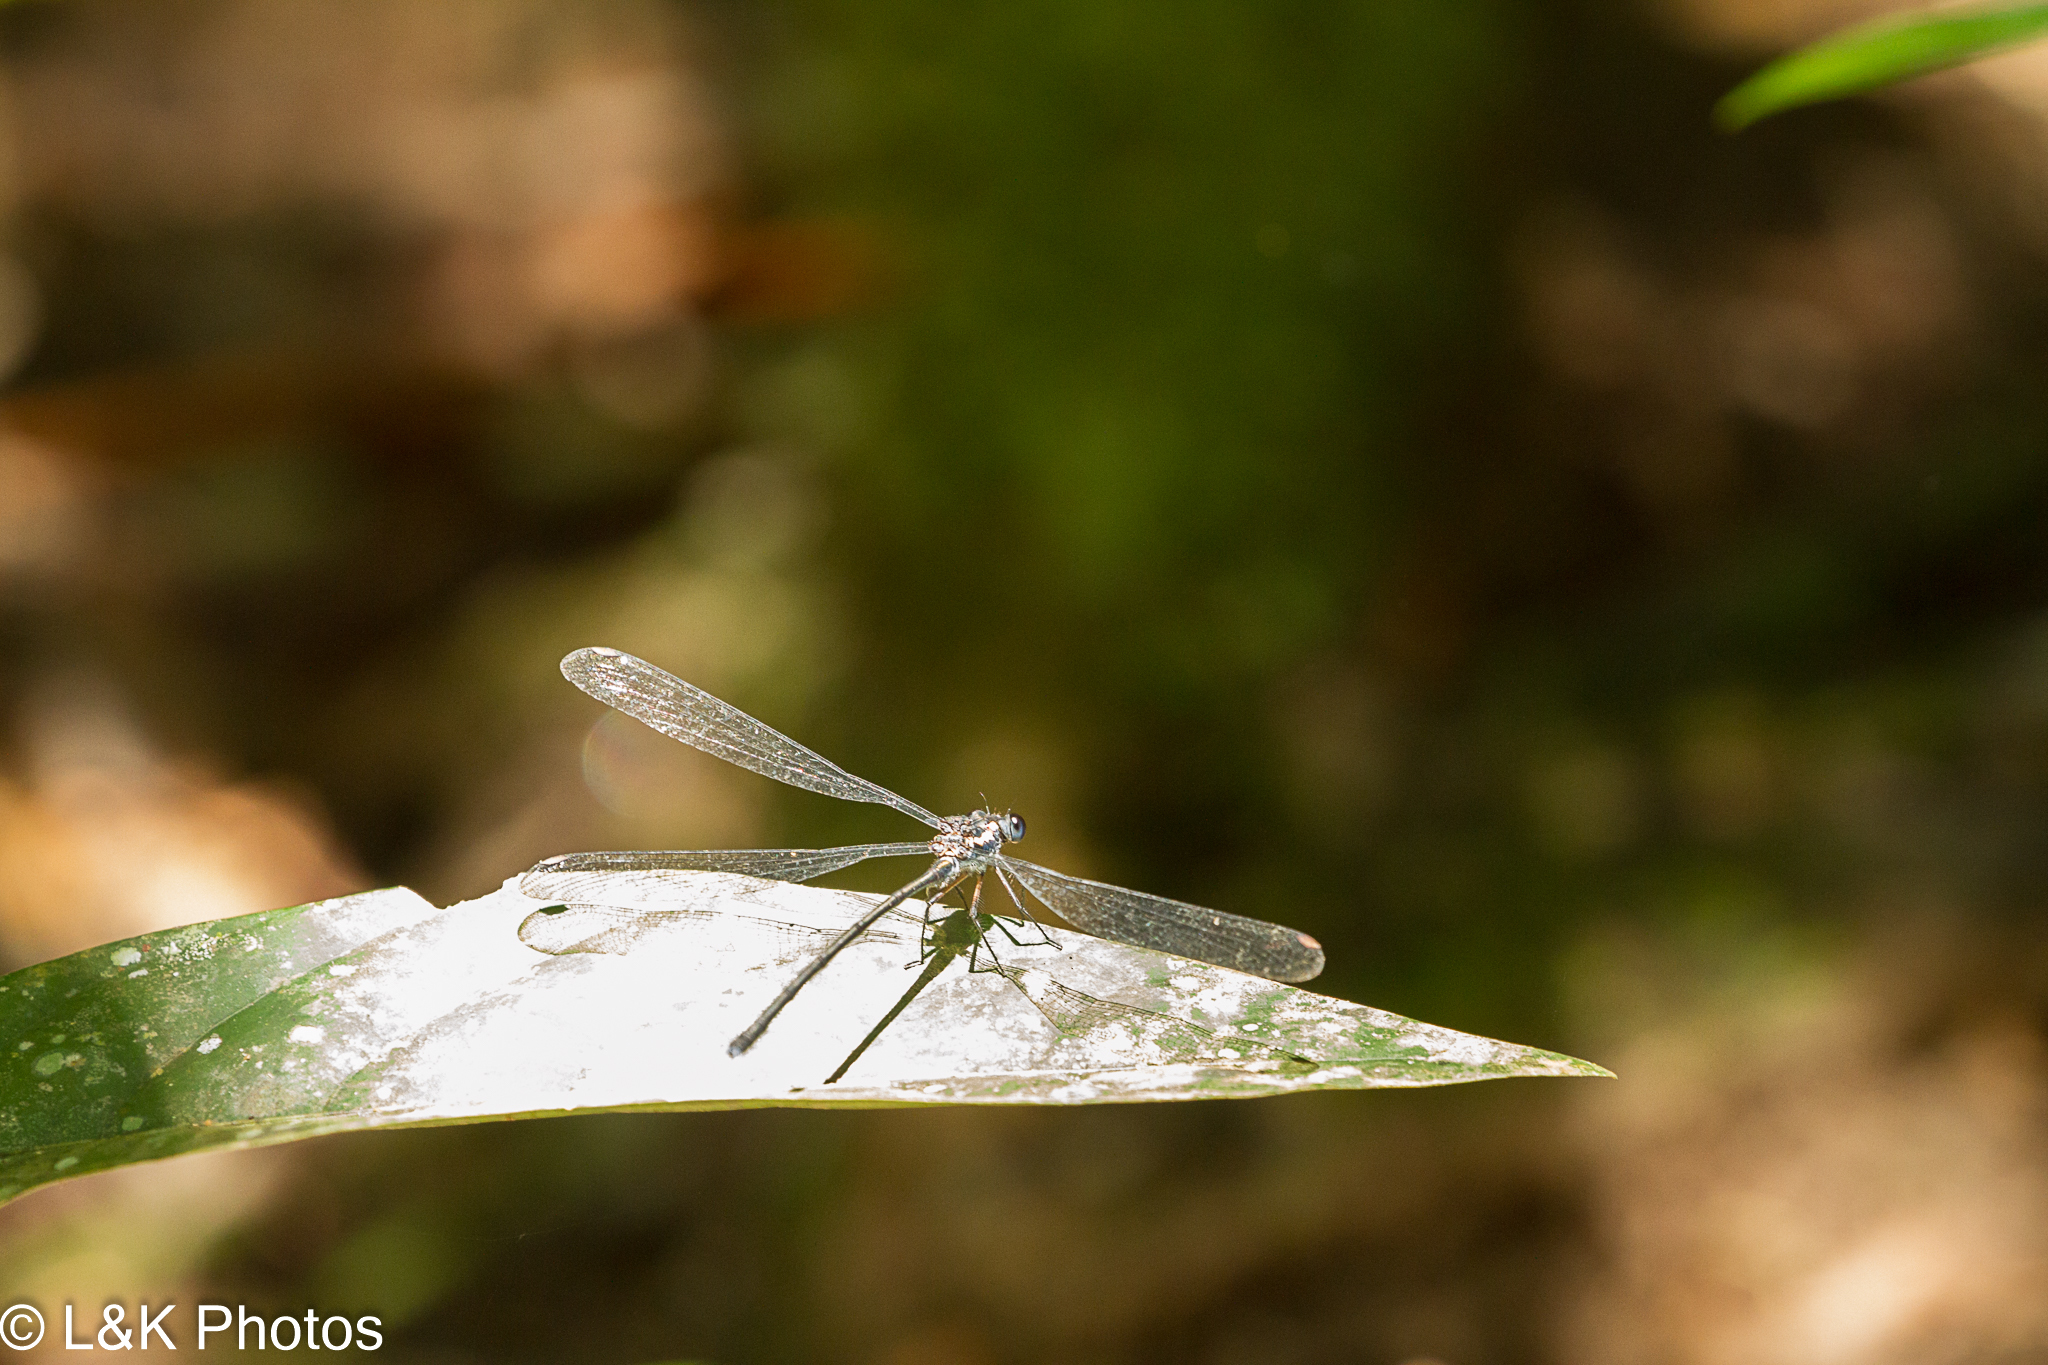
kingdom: Animalia
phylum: Arthropoda
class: Insecta
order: Odonata
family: Argiolestidae
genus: Podopteryx
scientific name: Podopteryx selysi
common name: Treehole flatwing
